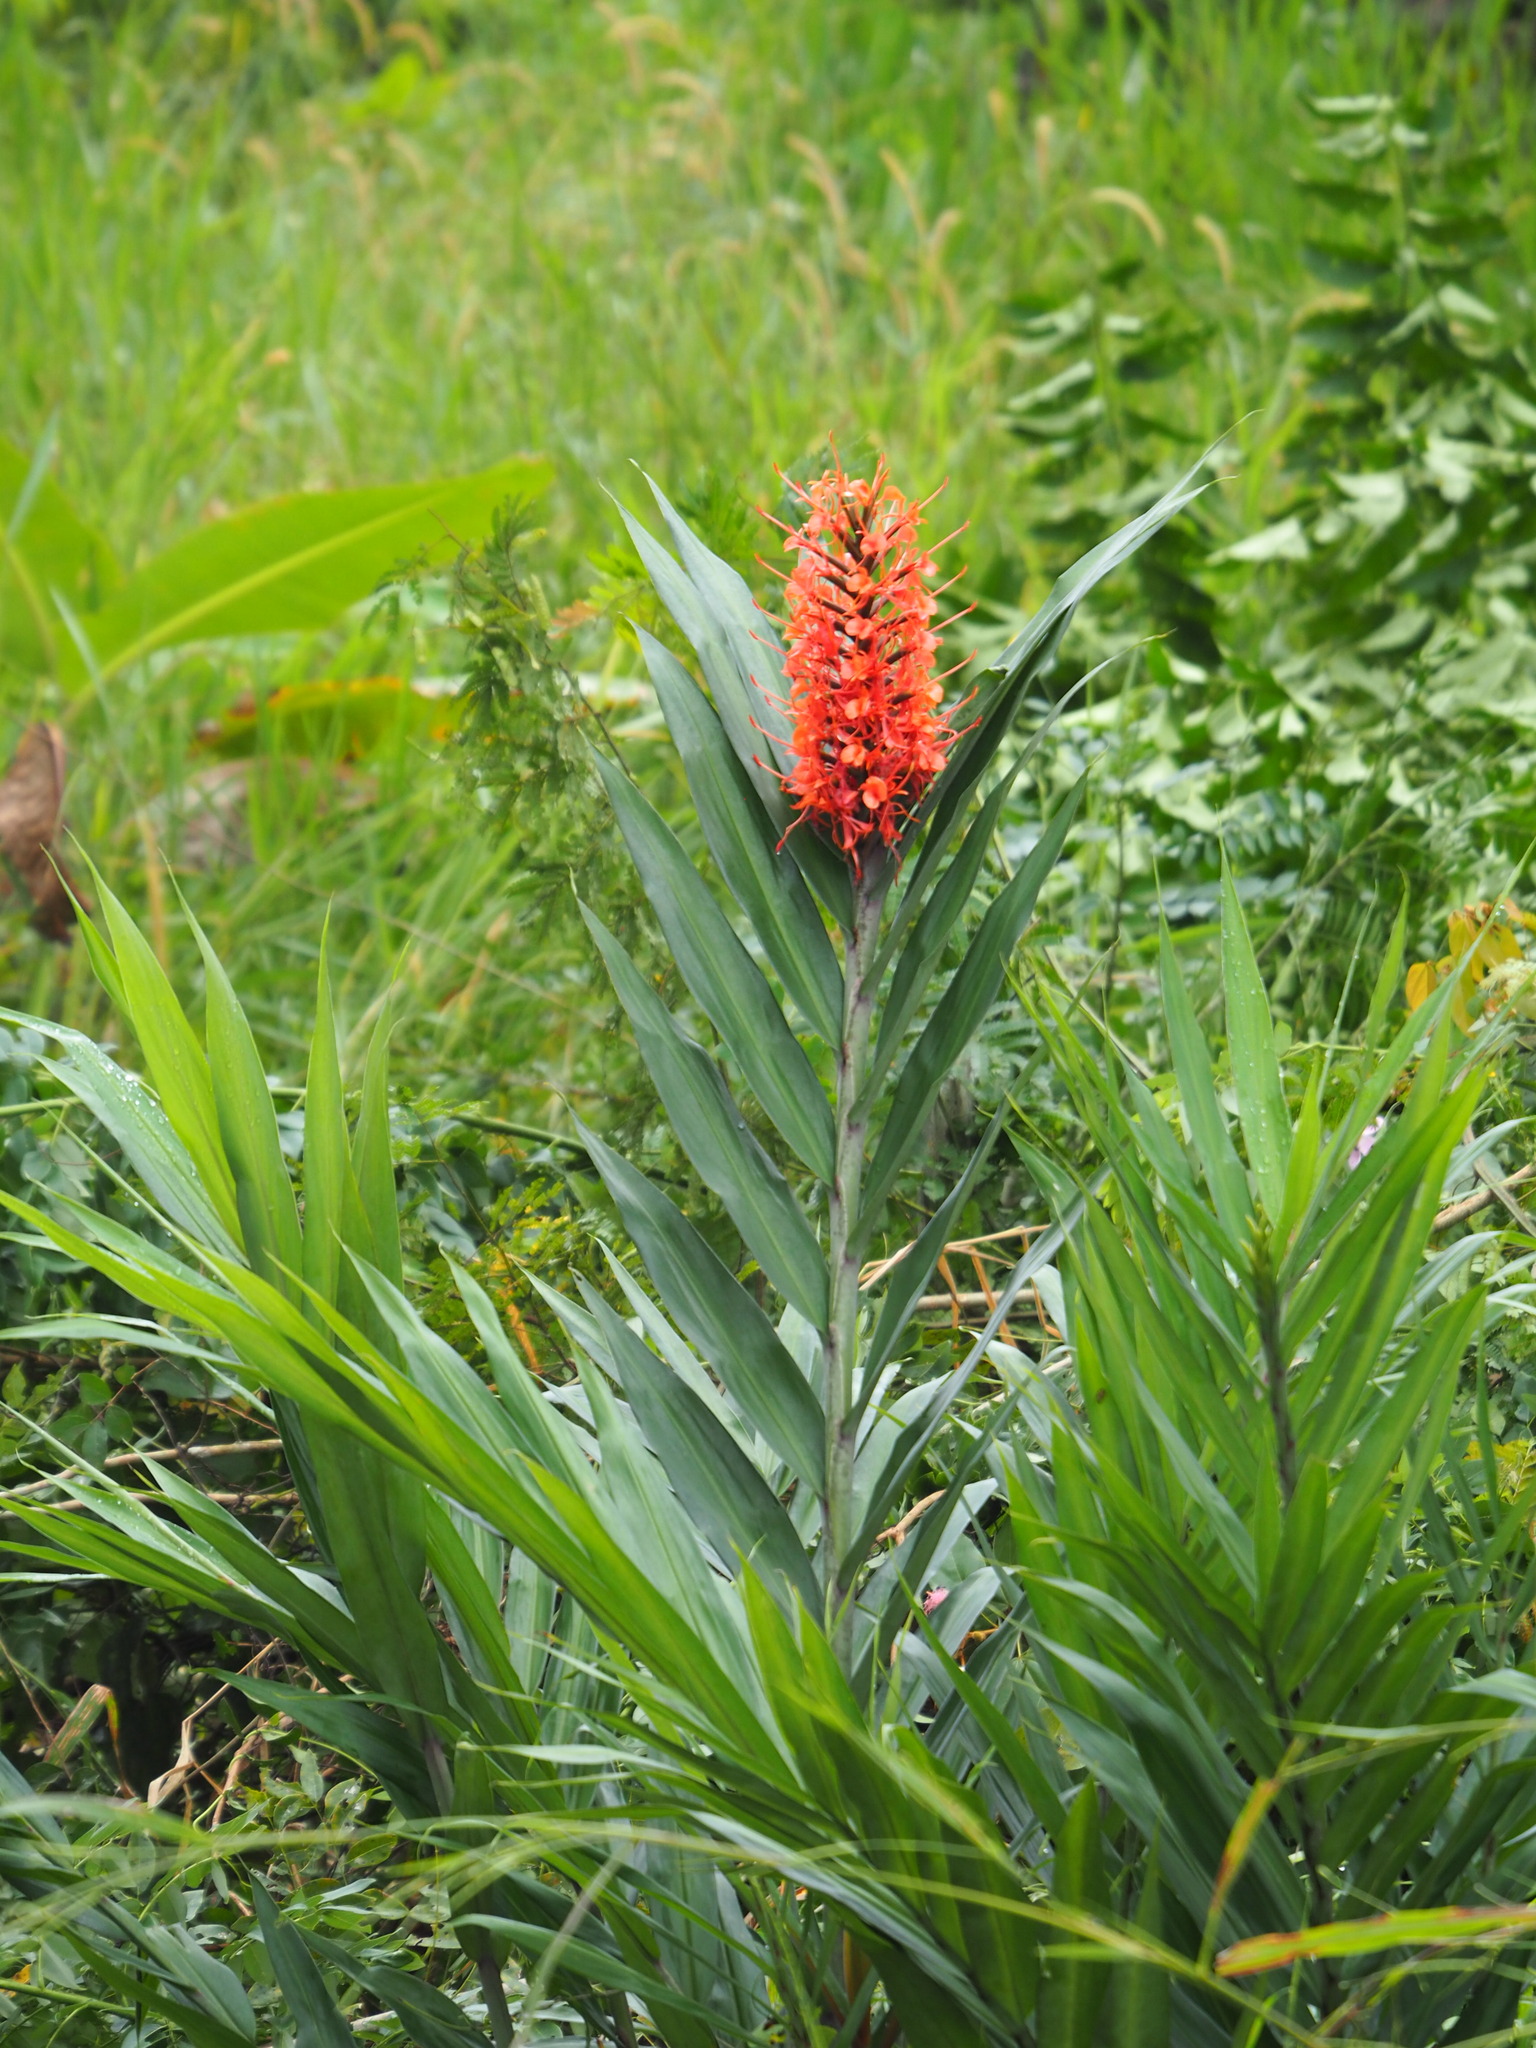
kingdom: Plantae
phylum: Tracheophyta
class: Liliopsida
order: Zingiberales
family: Zingiberaceae
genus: Hedychium
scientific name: Hedychium coccineum
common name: Red ginger-lily
